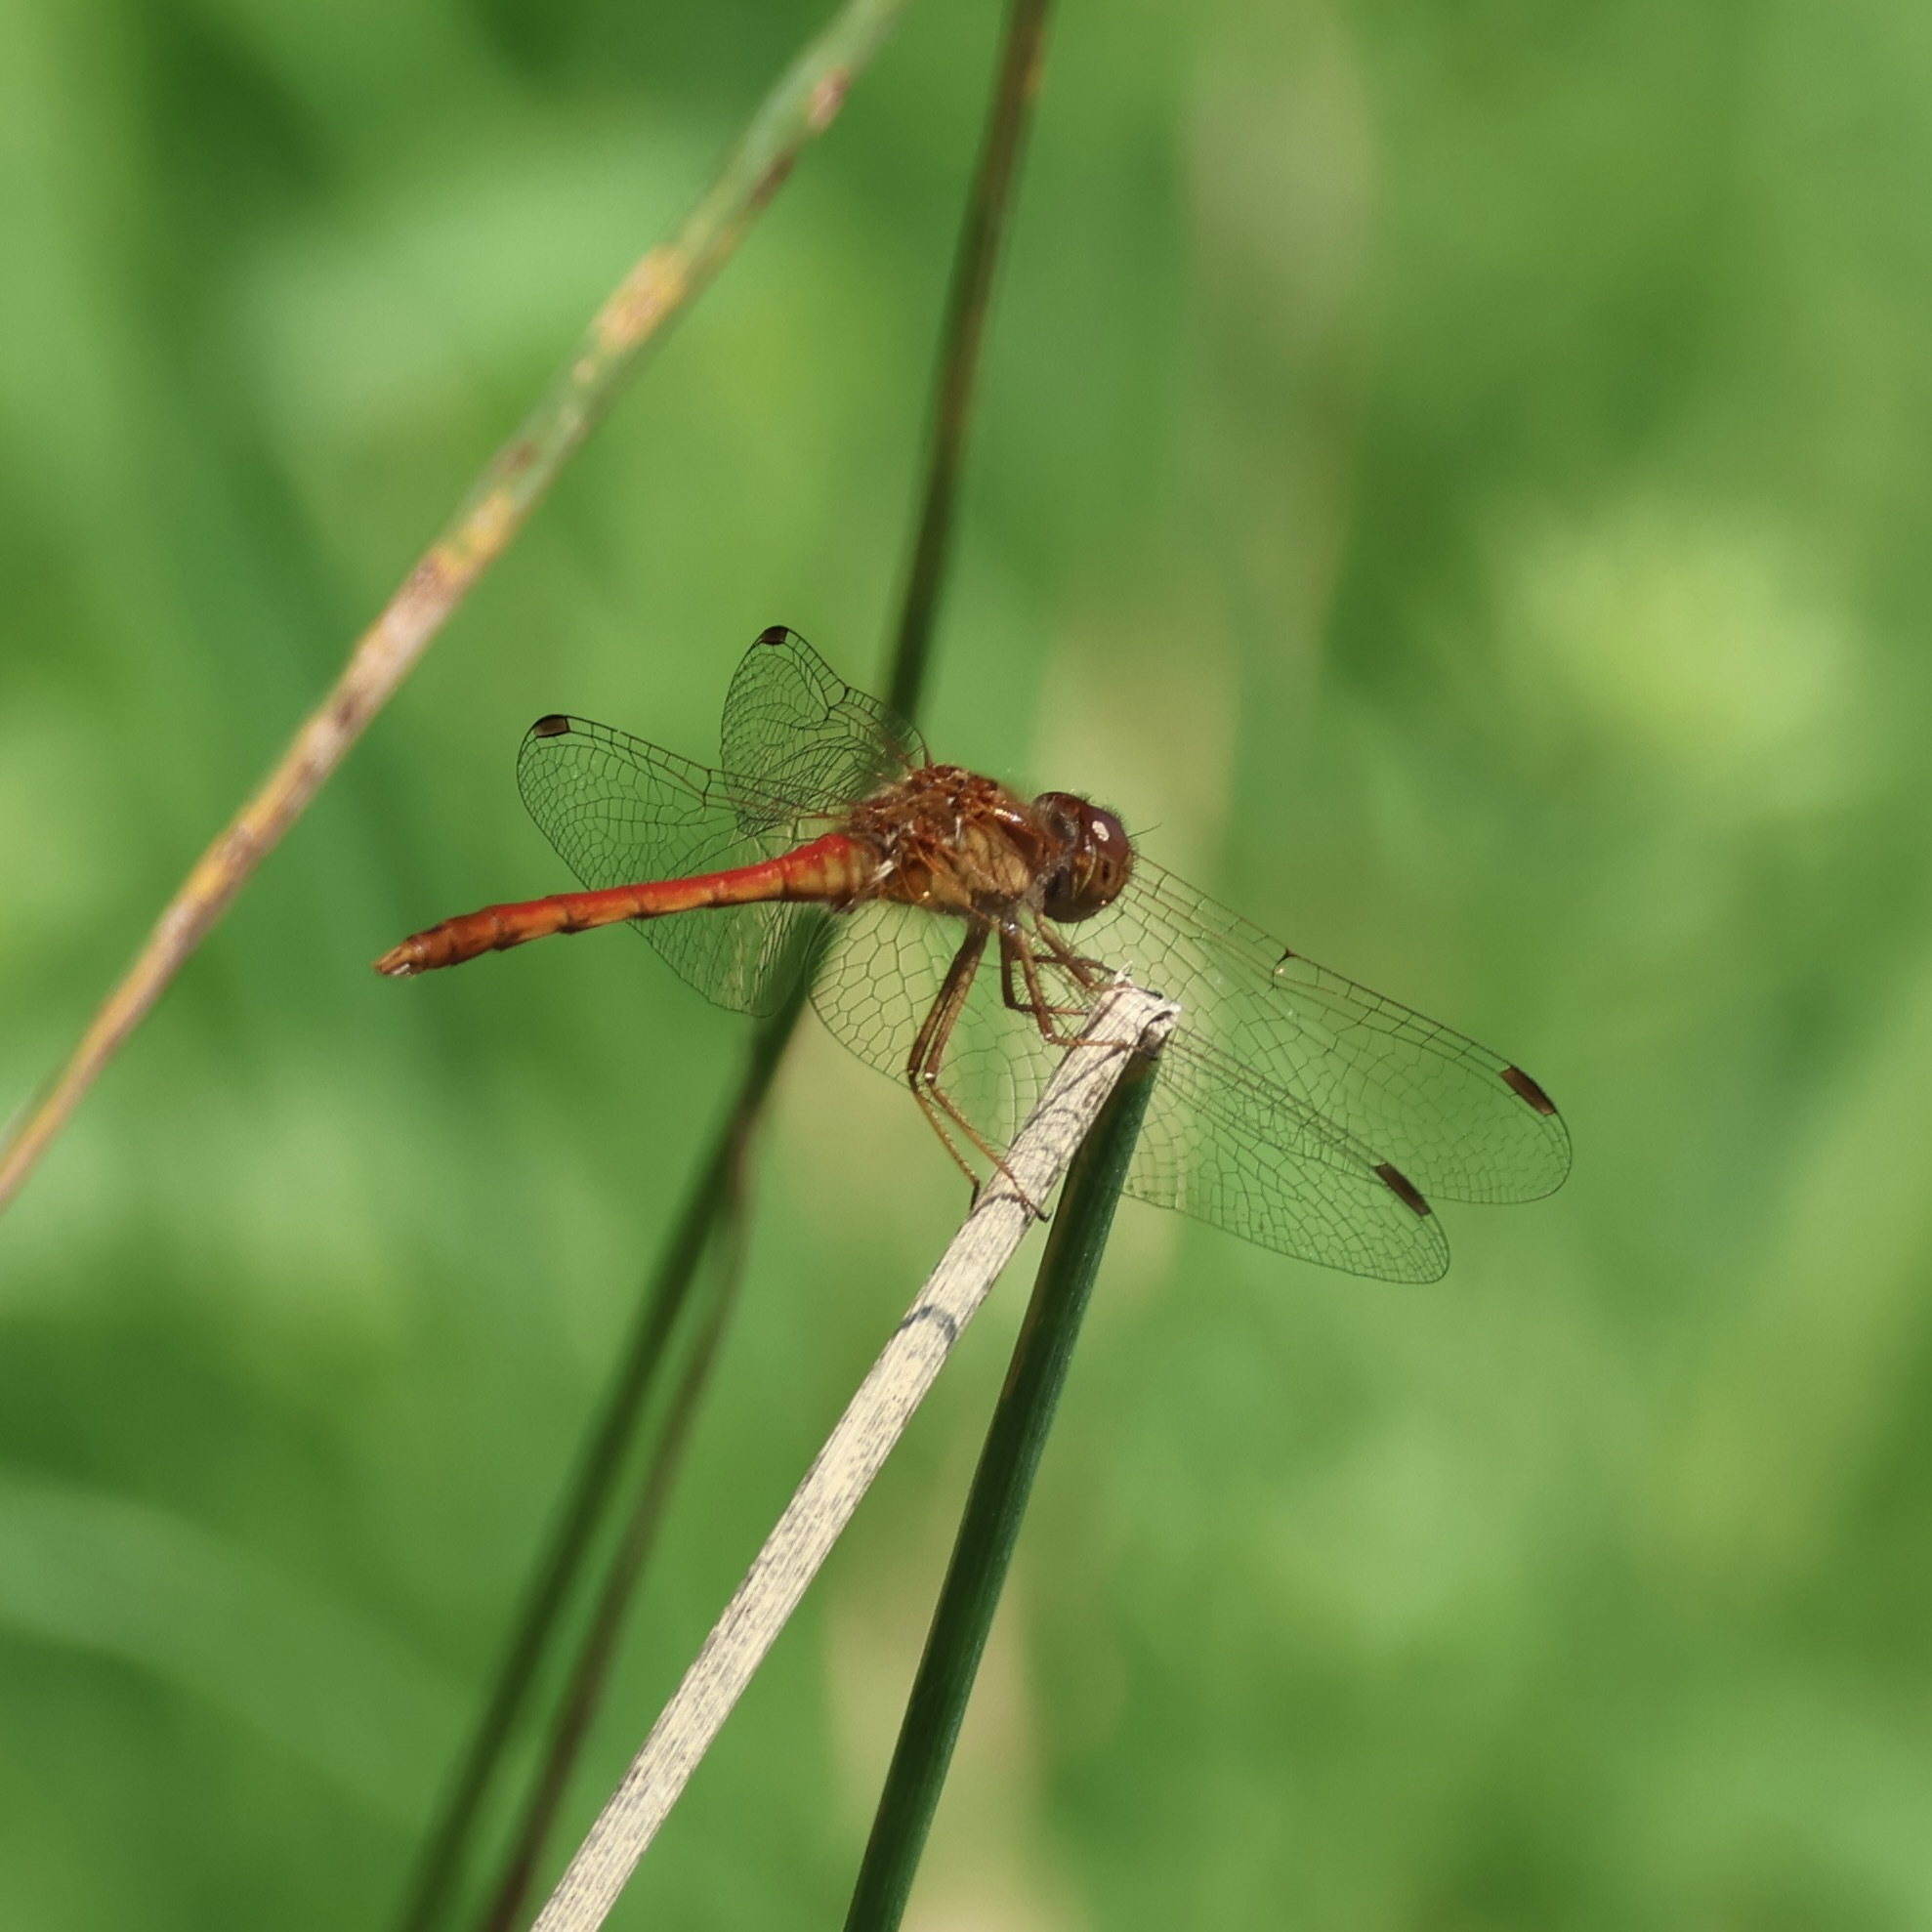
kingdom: Animalia
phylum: Arthropoda
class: Insecta
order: Odonata
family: Libellulidae
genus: Sympetrum
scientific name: Sympetrum vicinum
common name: Autumn meadowhawk
